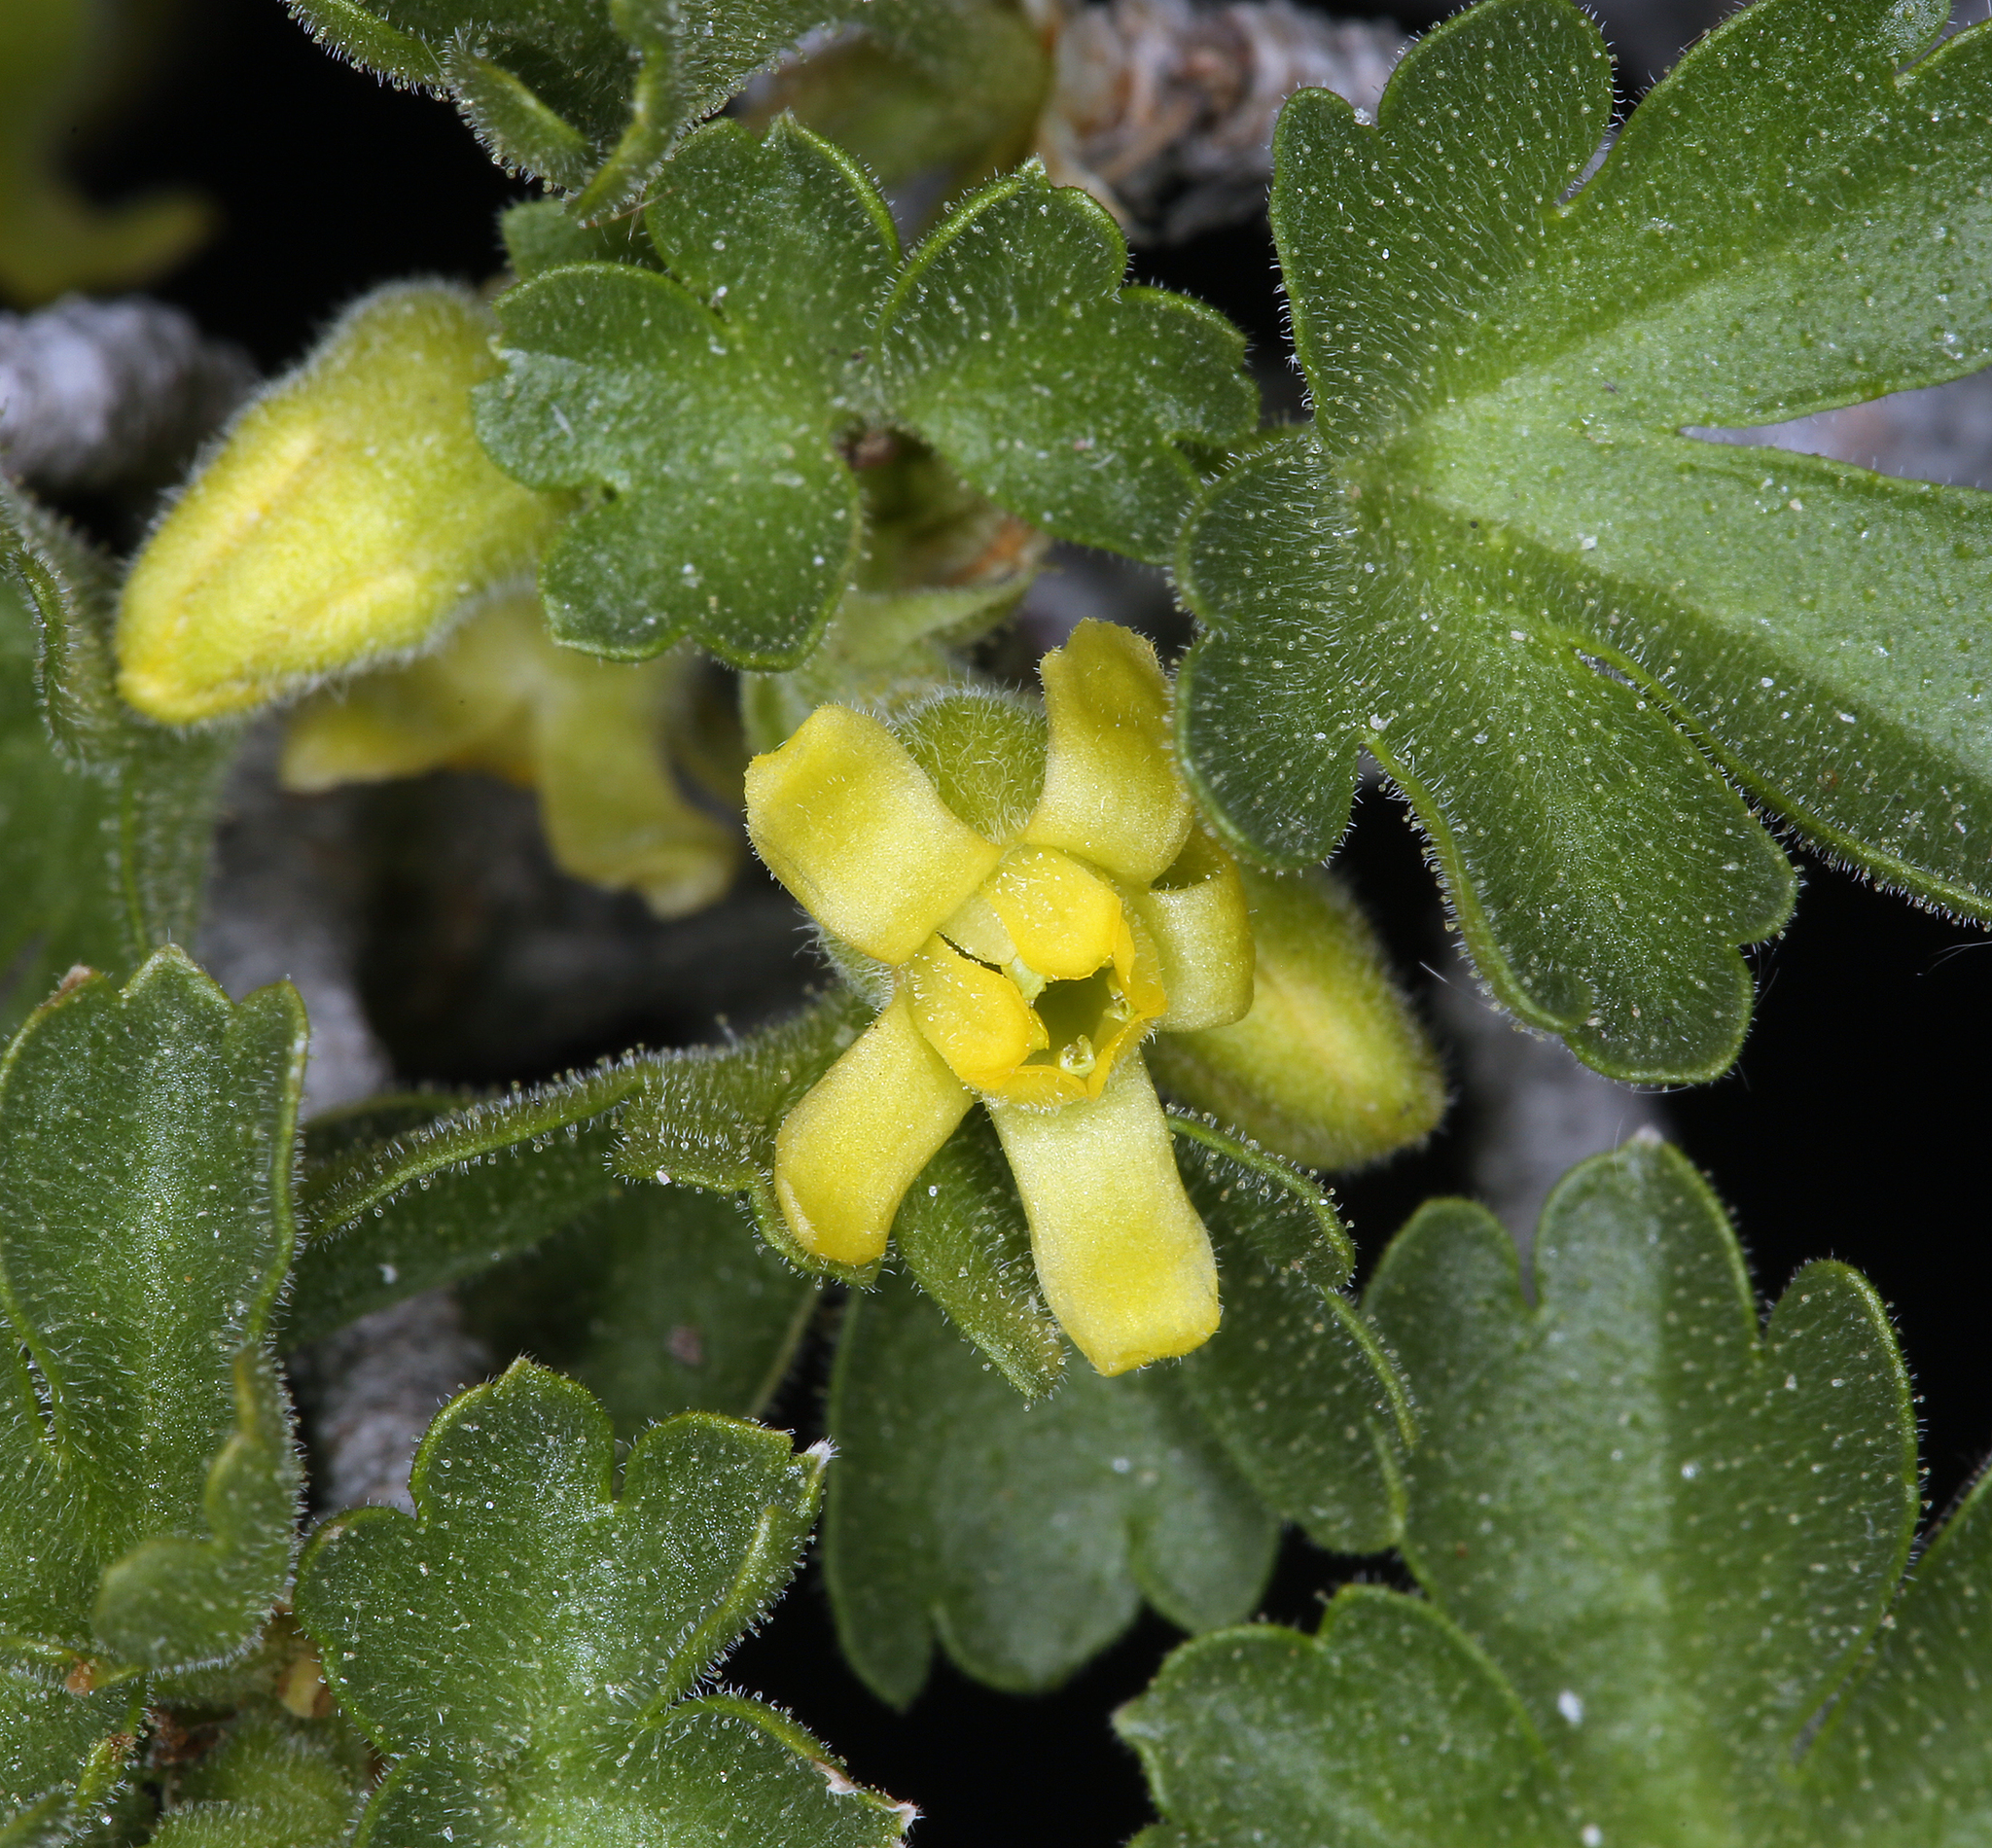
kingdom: Plantae
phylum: Tracheophyta
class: Magnoliopsida
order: Saxifragales
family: Grossulariaceae
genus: Ribes
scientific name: Ribes velutinum
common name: Desert gooseberry
